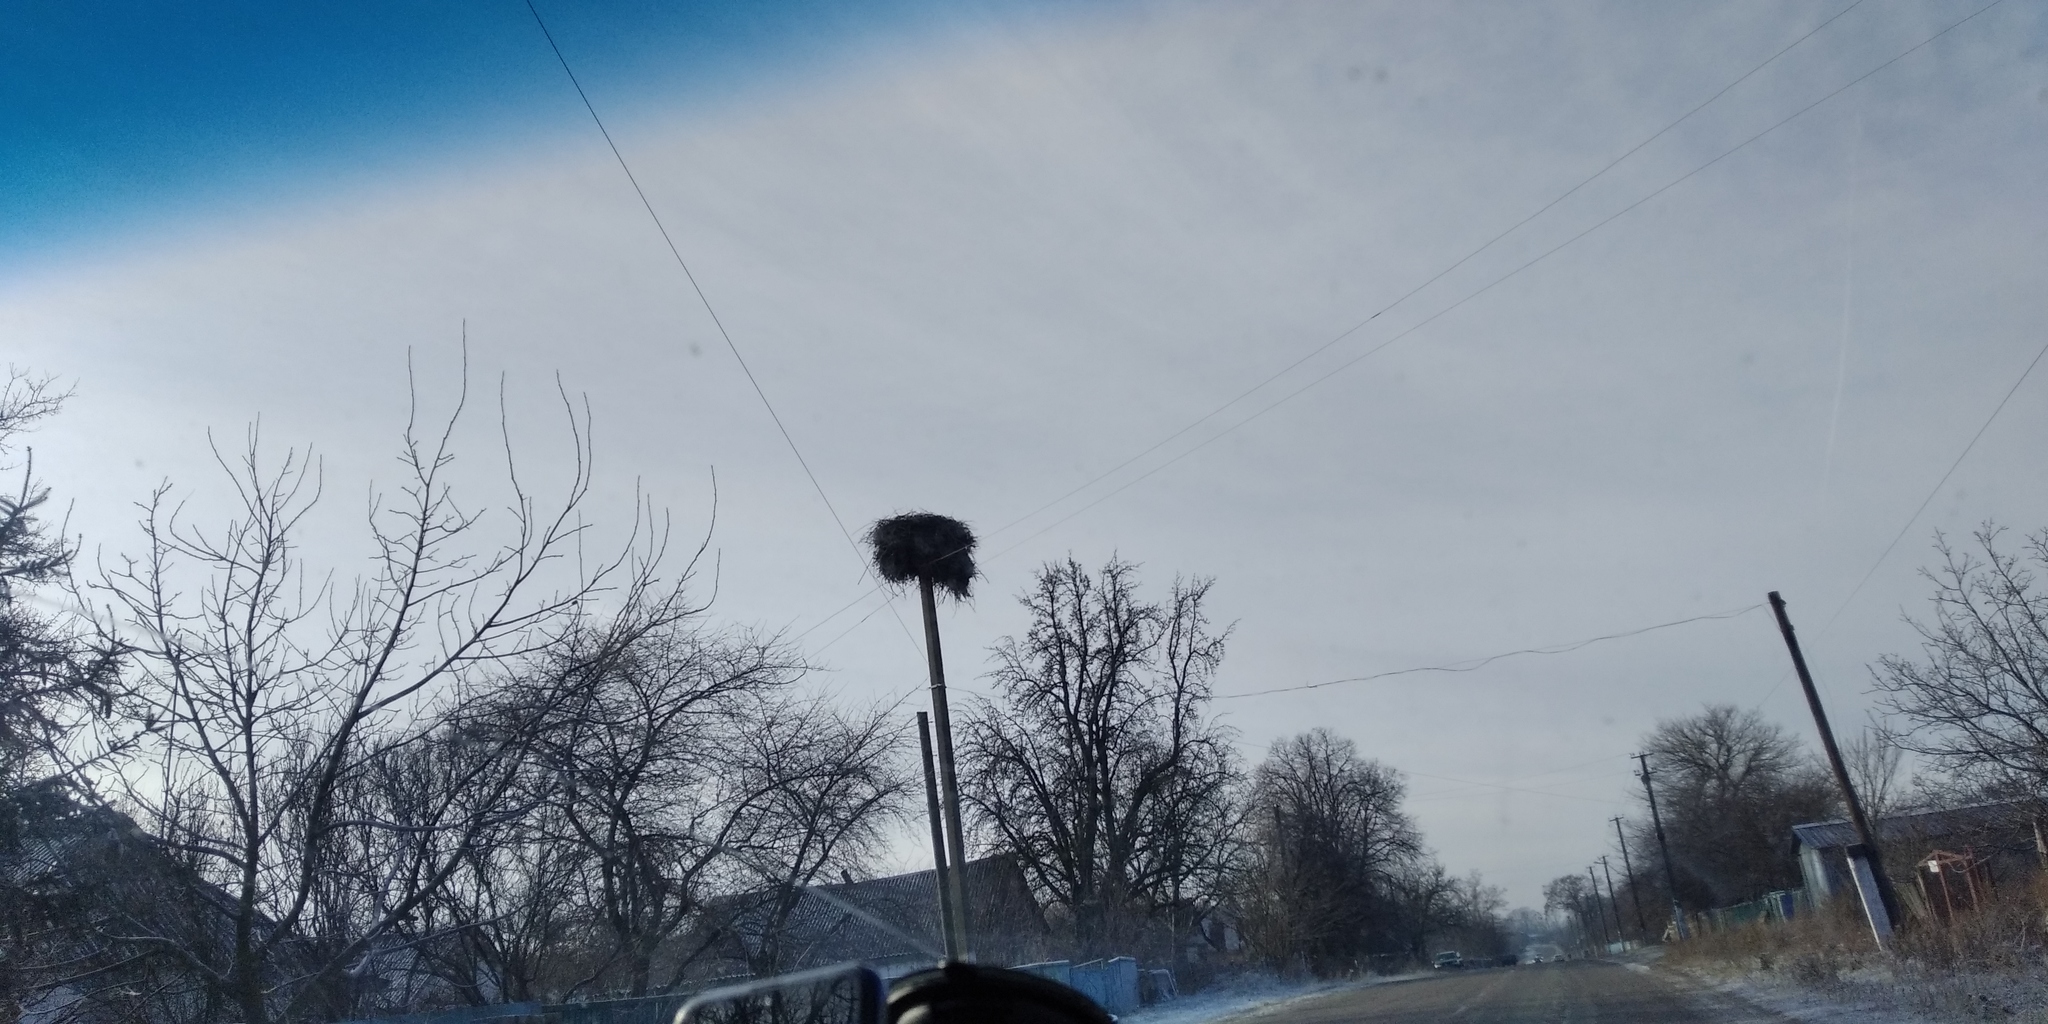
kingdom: Animalia
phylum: Chordata
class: Aves
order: Ciconiiformes
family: Ciconiidae
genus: Ciconia
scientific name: Ciconia ciconia
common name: White stork
